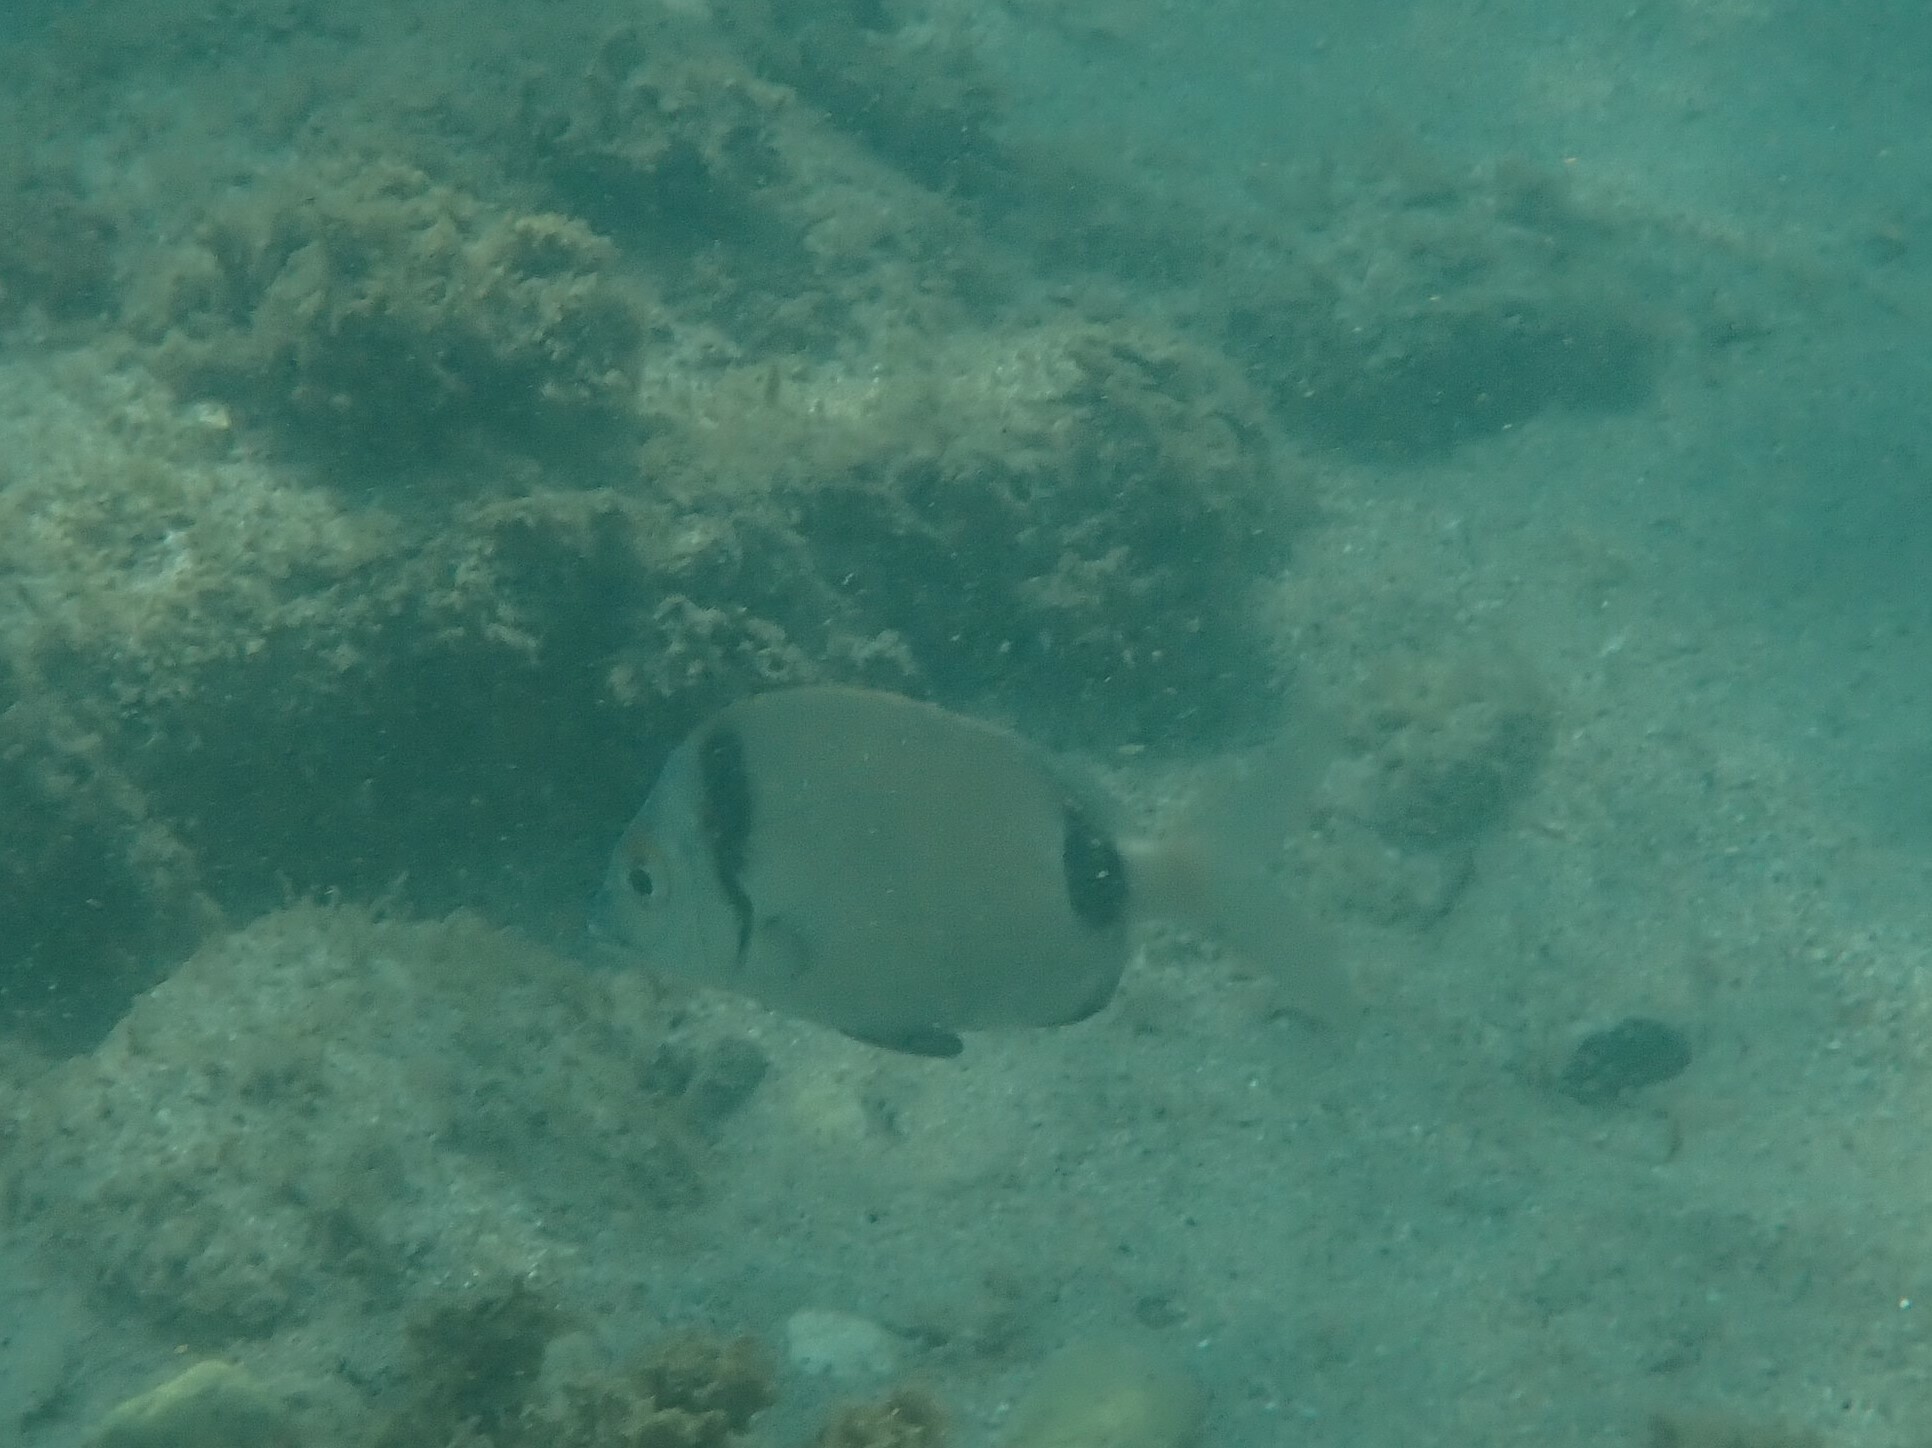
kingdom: Animalia
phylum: Chordata
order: Perciformes
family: Sparidae
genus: Diplodus
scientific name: Diplodus vulgaris
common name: Common two-banded seabream
